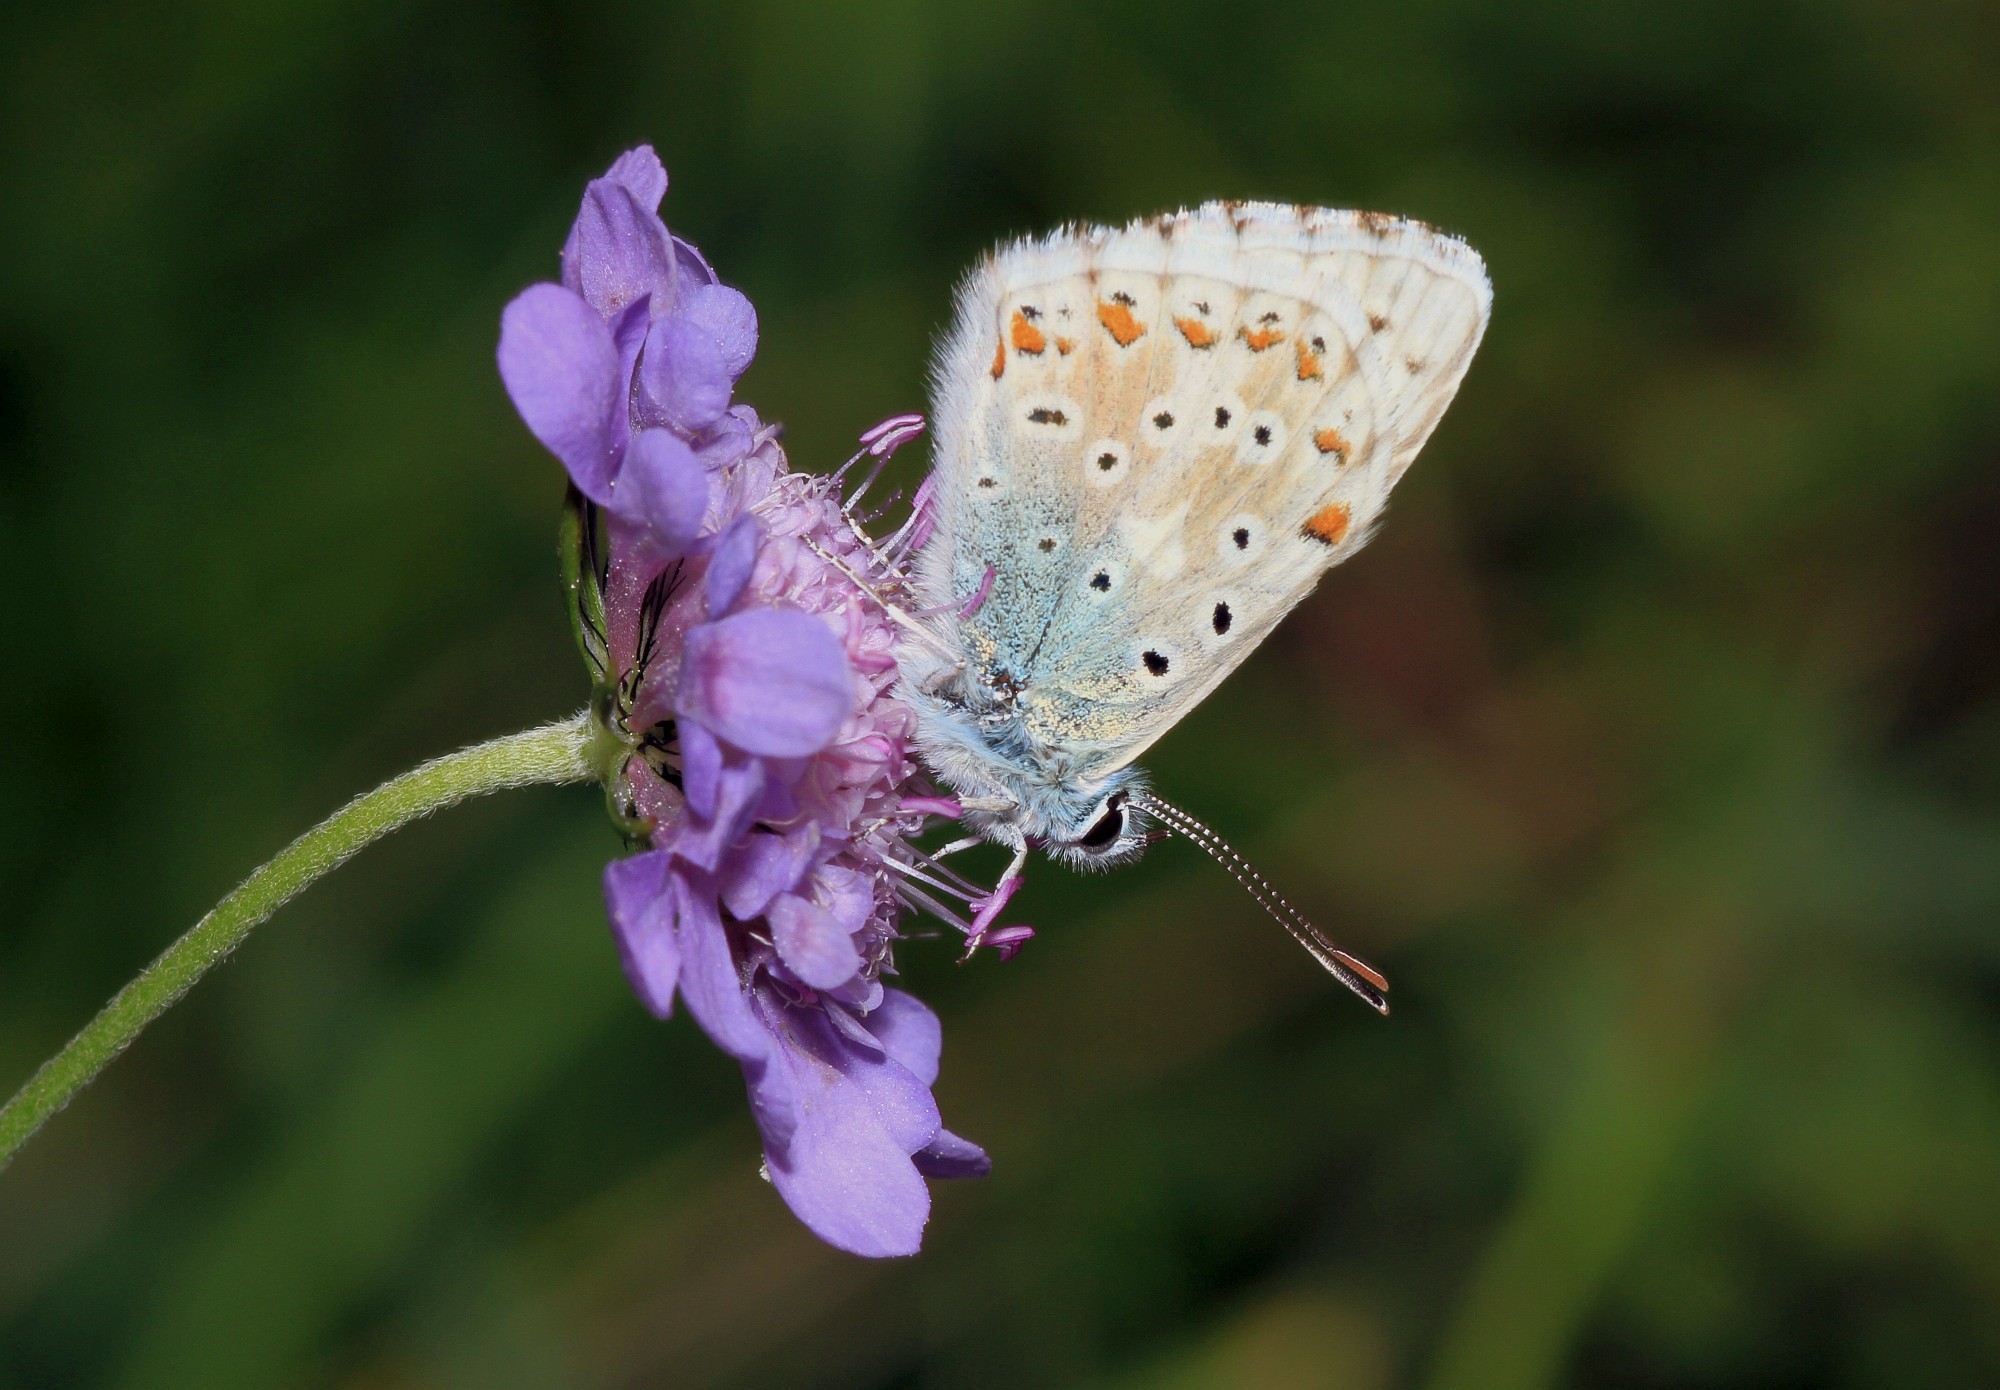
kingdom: Animalia
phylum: Arthropoda
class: Insecta
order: Lepidoptera
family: Lycaenidae
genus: Lysandra
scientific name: Lysandra coridon
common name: Chalkhill blue
